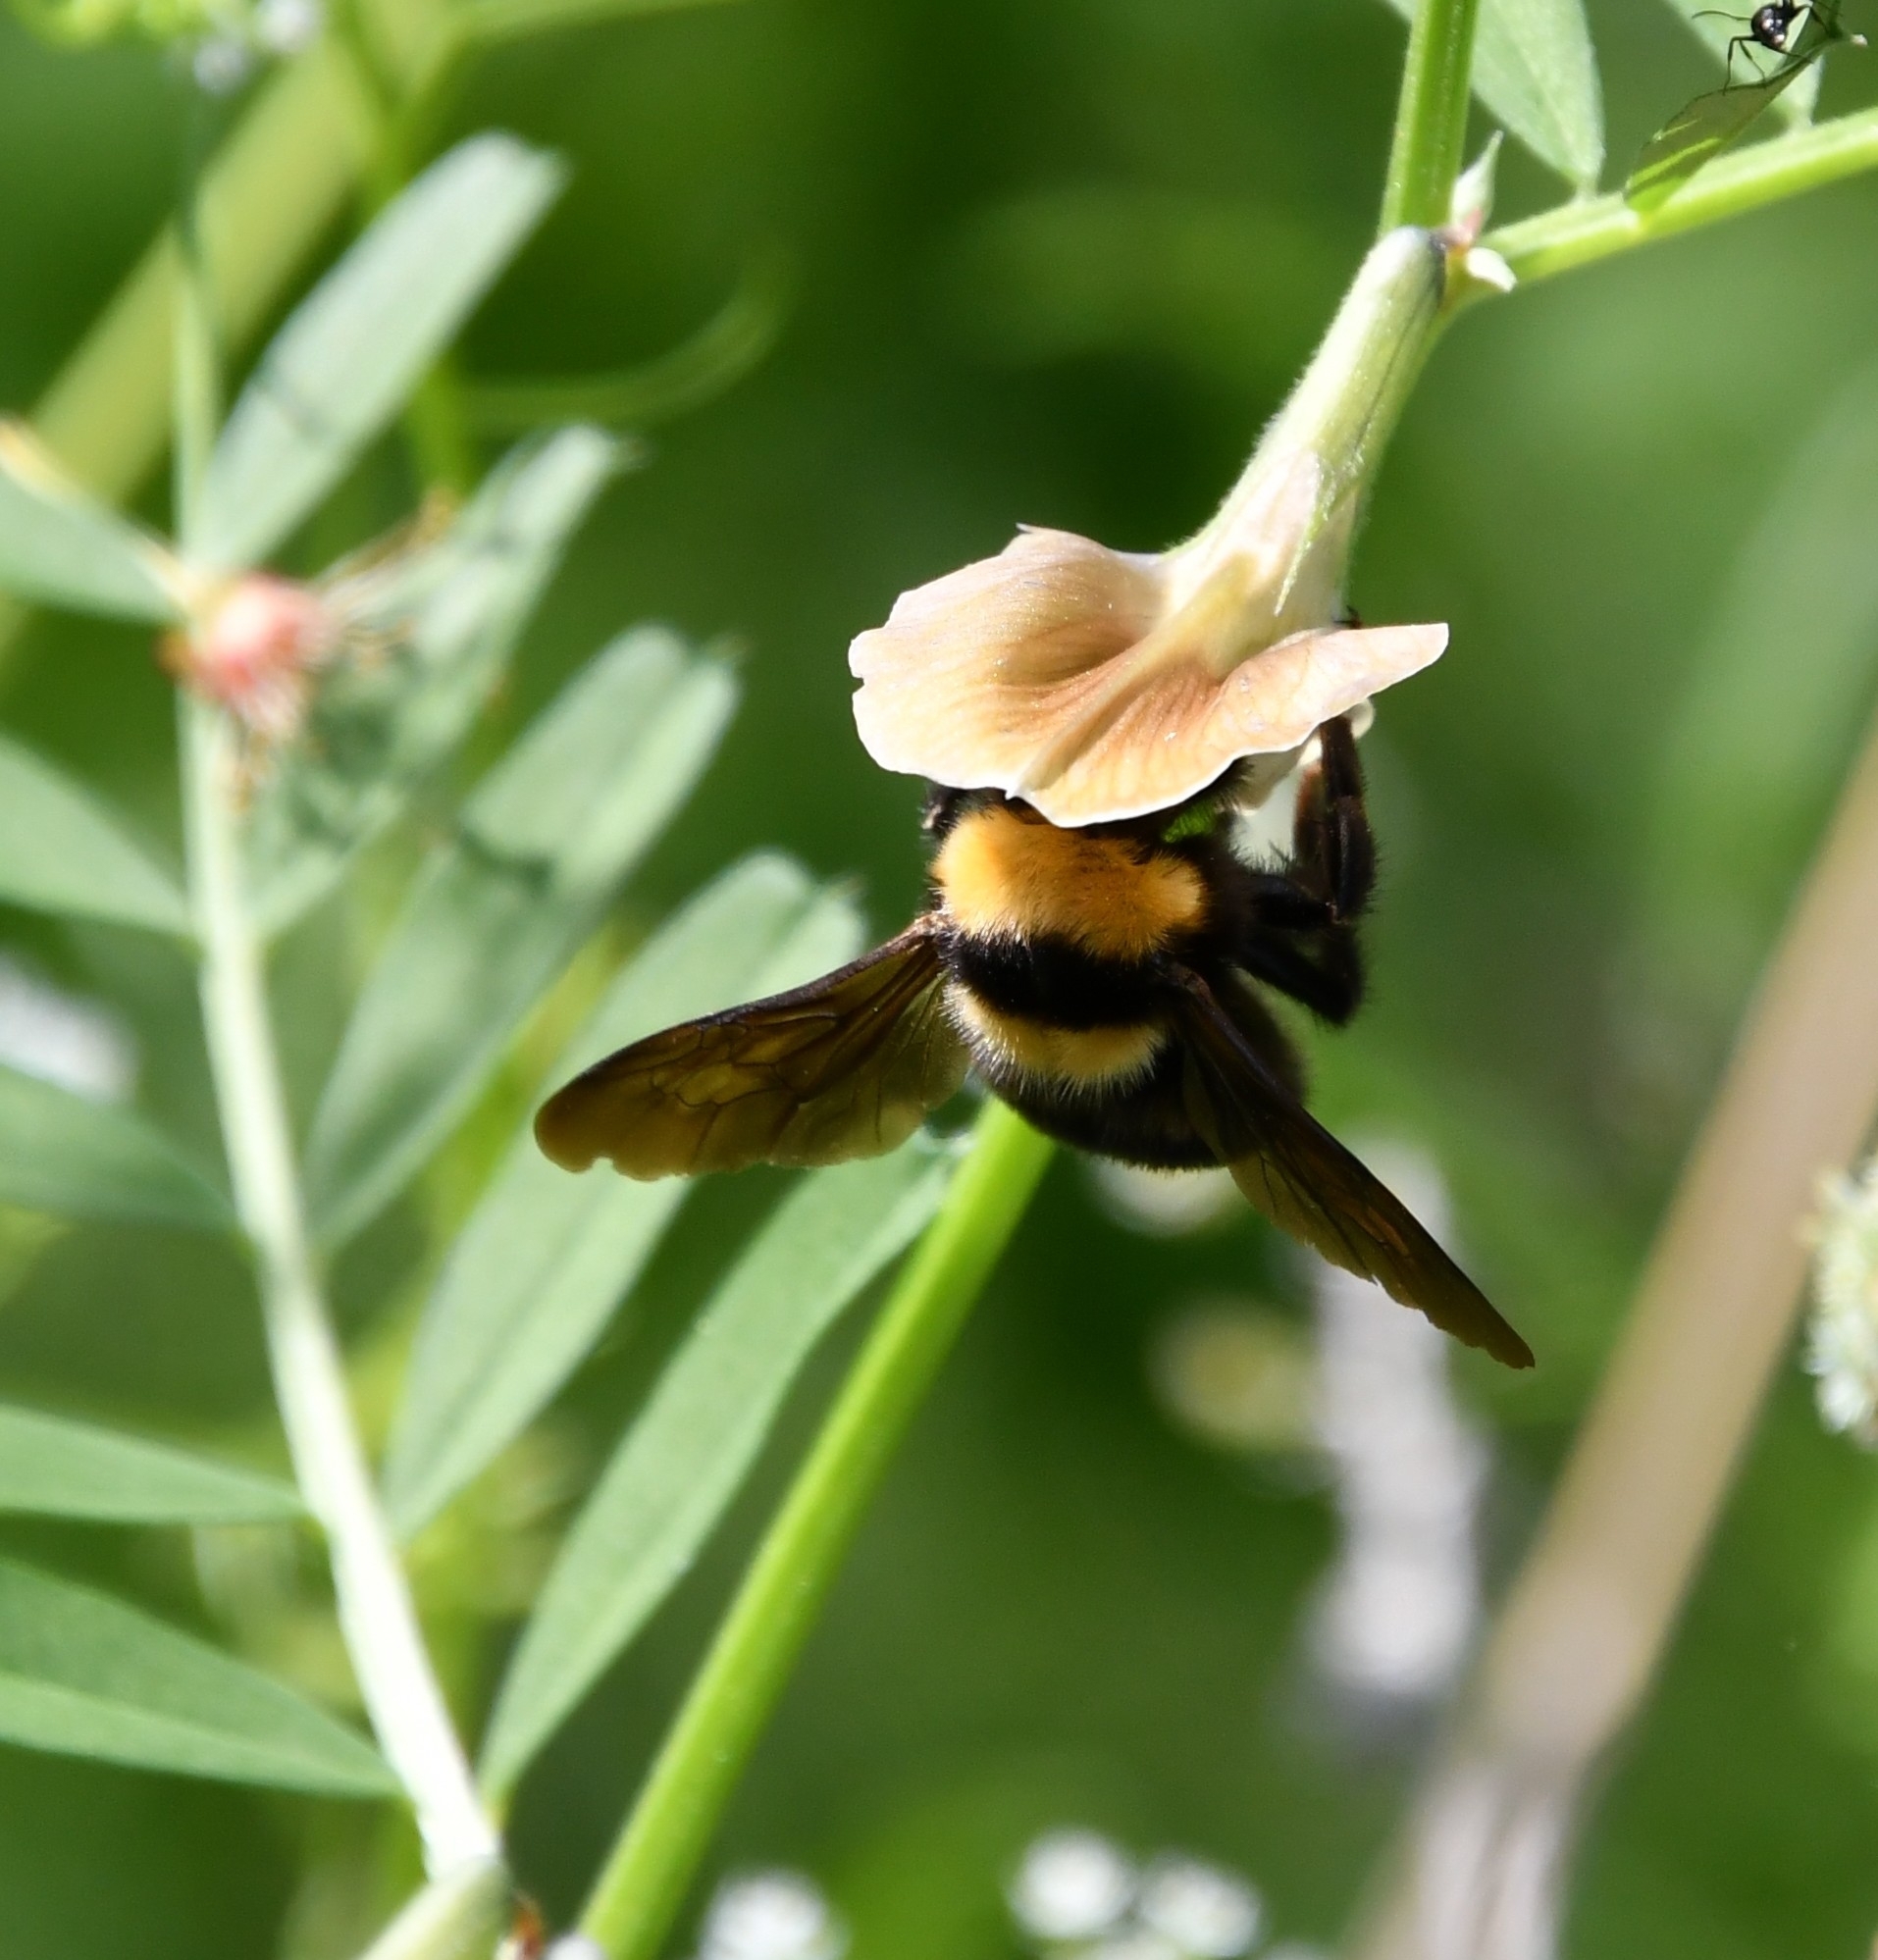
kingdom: Animalia
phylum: Arthropoda
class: Insecta
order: Hymenoptera
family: Apidae
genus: Bombus
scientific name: Bombus argillaceus
